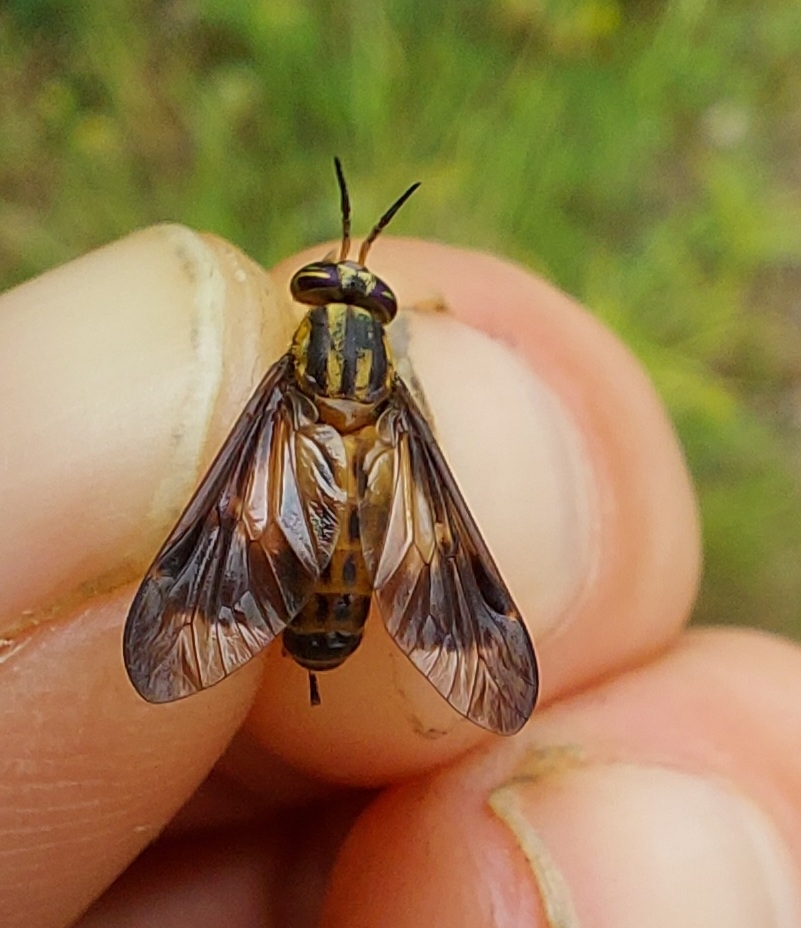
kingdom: Animalia
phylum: Arthropoda
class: Insecta
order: Diptera
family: Tabanidae
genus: Chrysops
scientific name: Chrysops vittatus
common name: Striped deer fly
